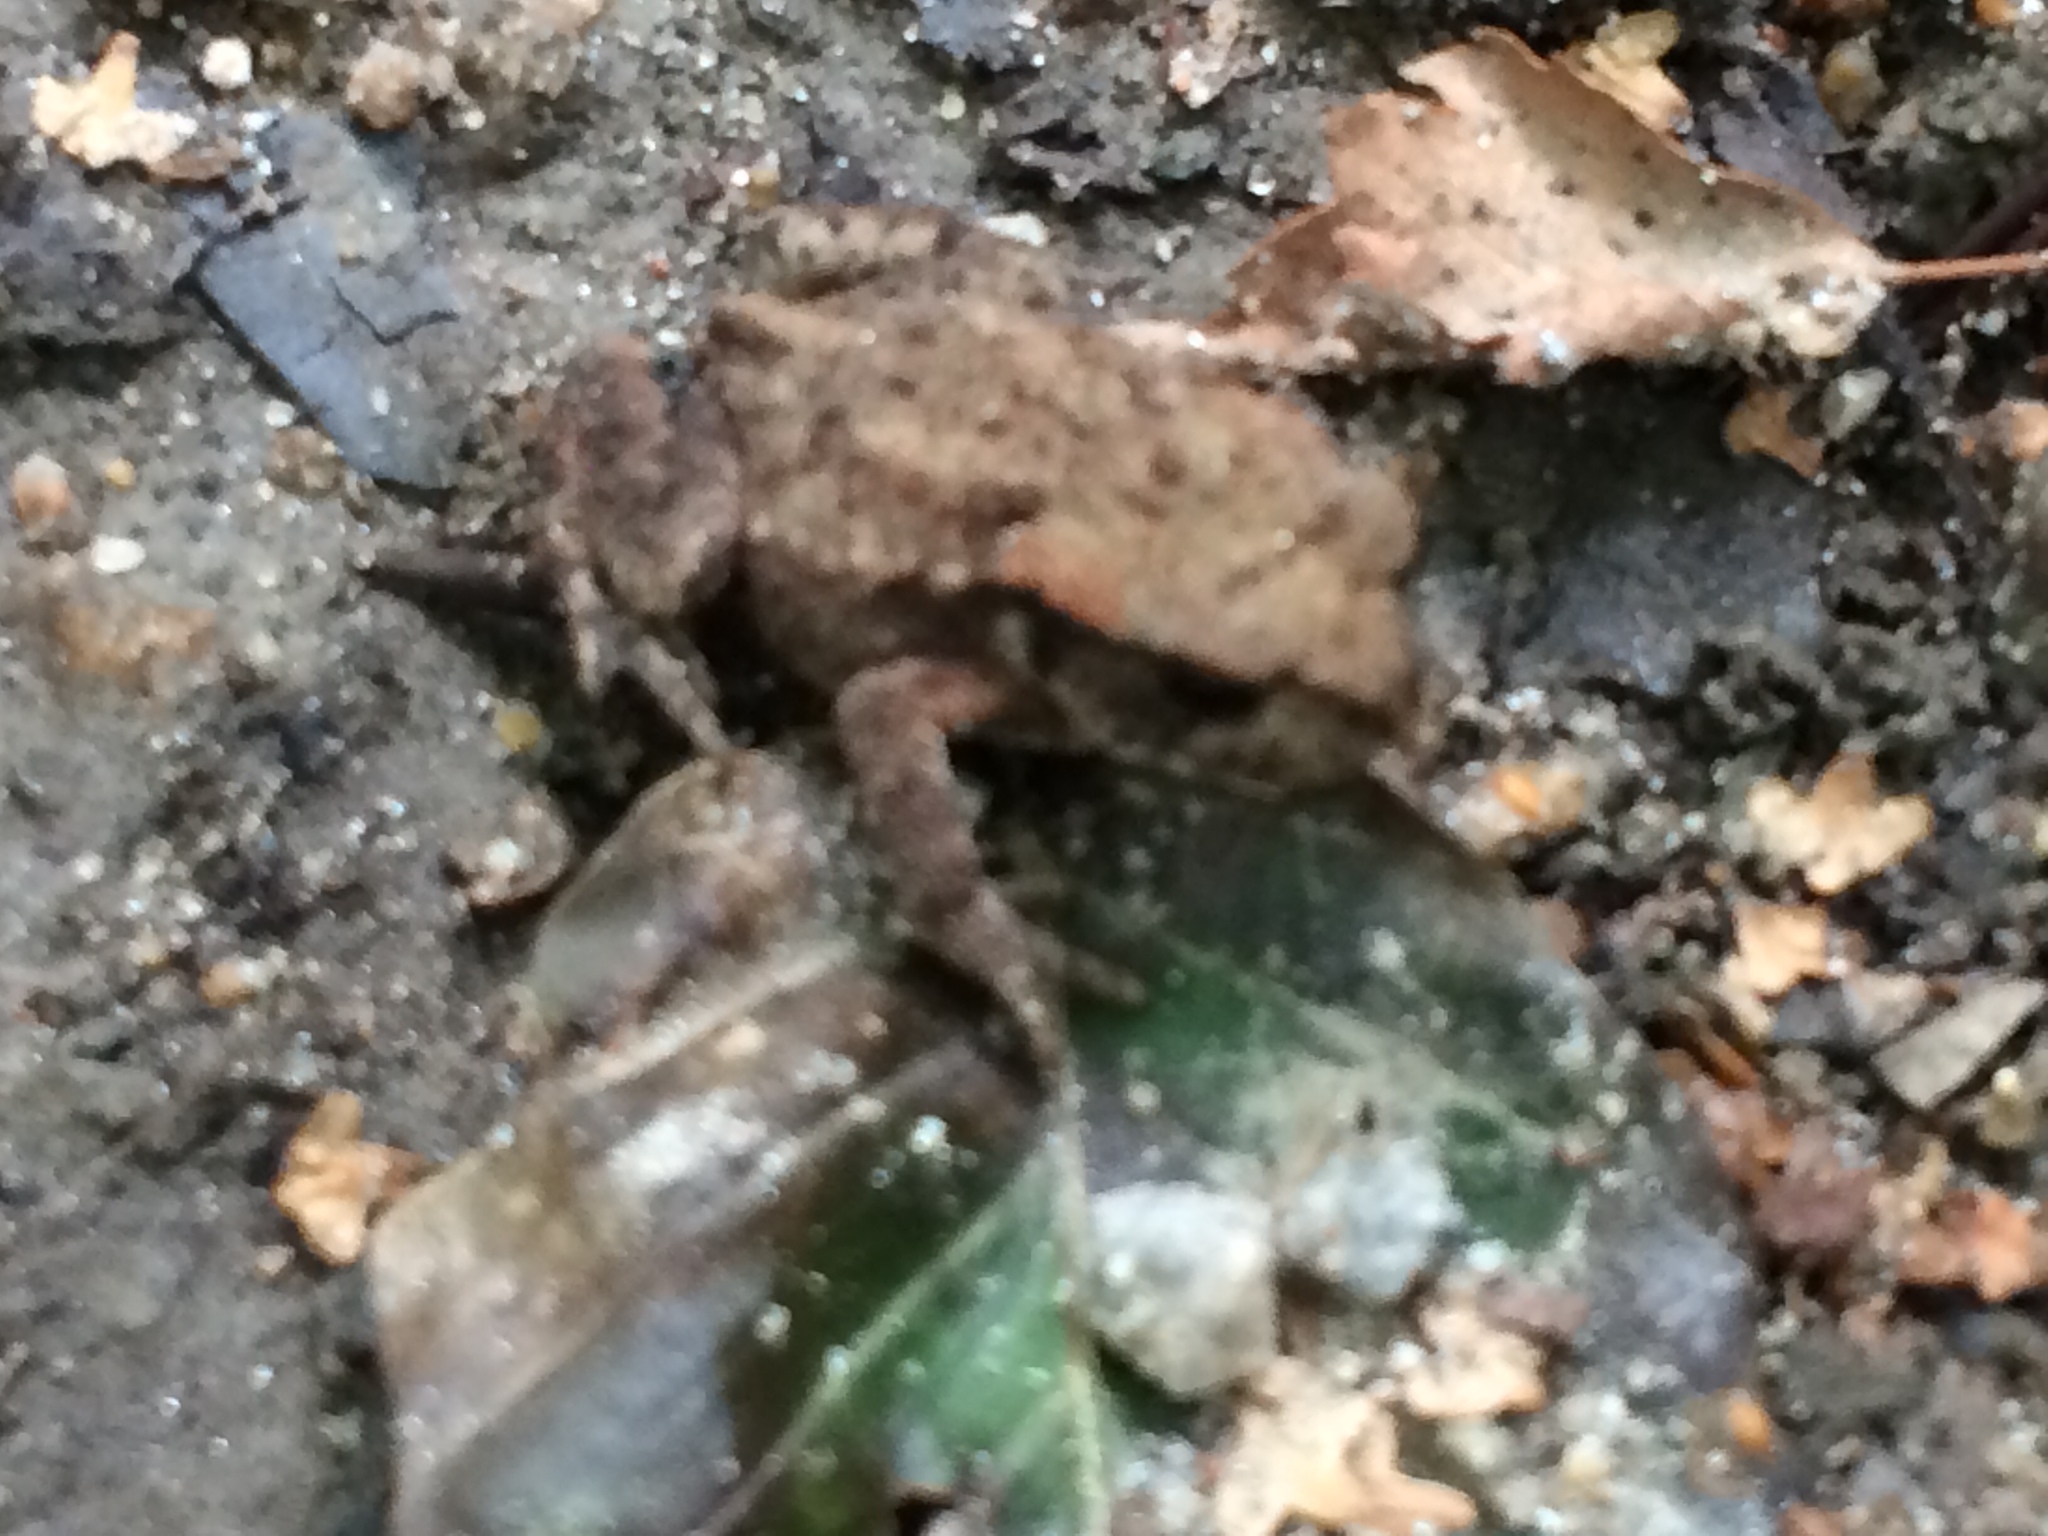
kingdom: Animalia
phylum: Chordata
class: Amphibia
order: Anura
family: Bufonidae
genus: Bufo
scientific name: Bufo bufo
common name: Common toad
